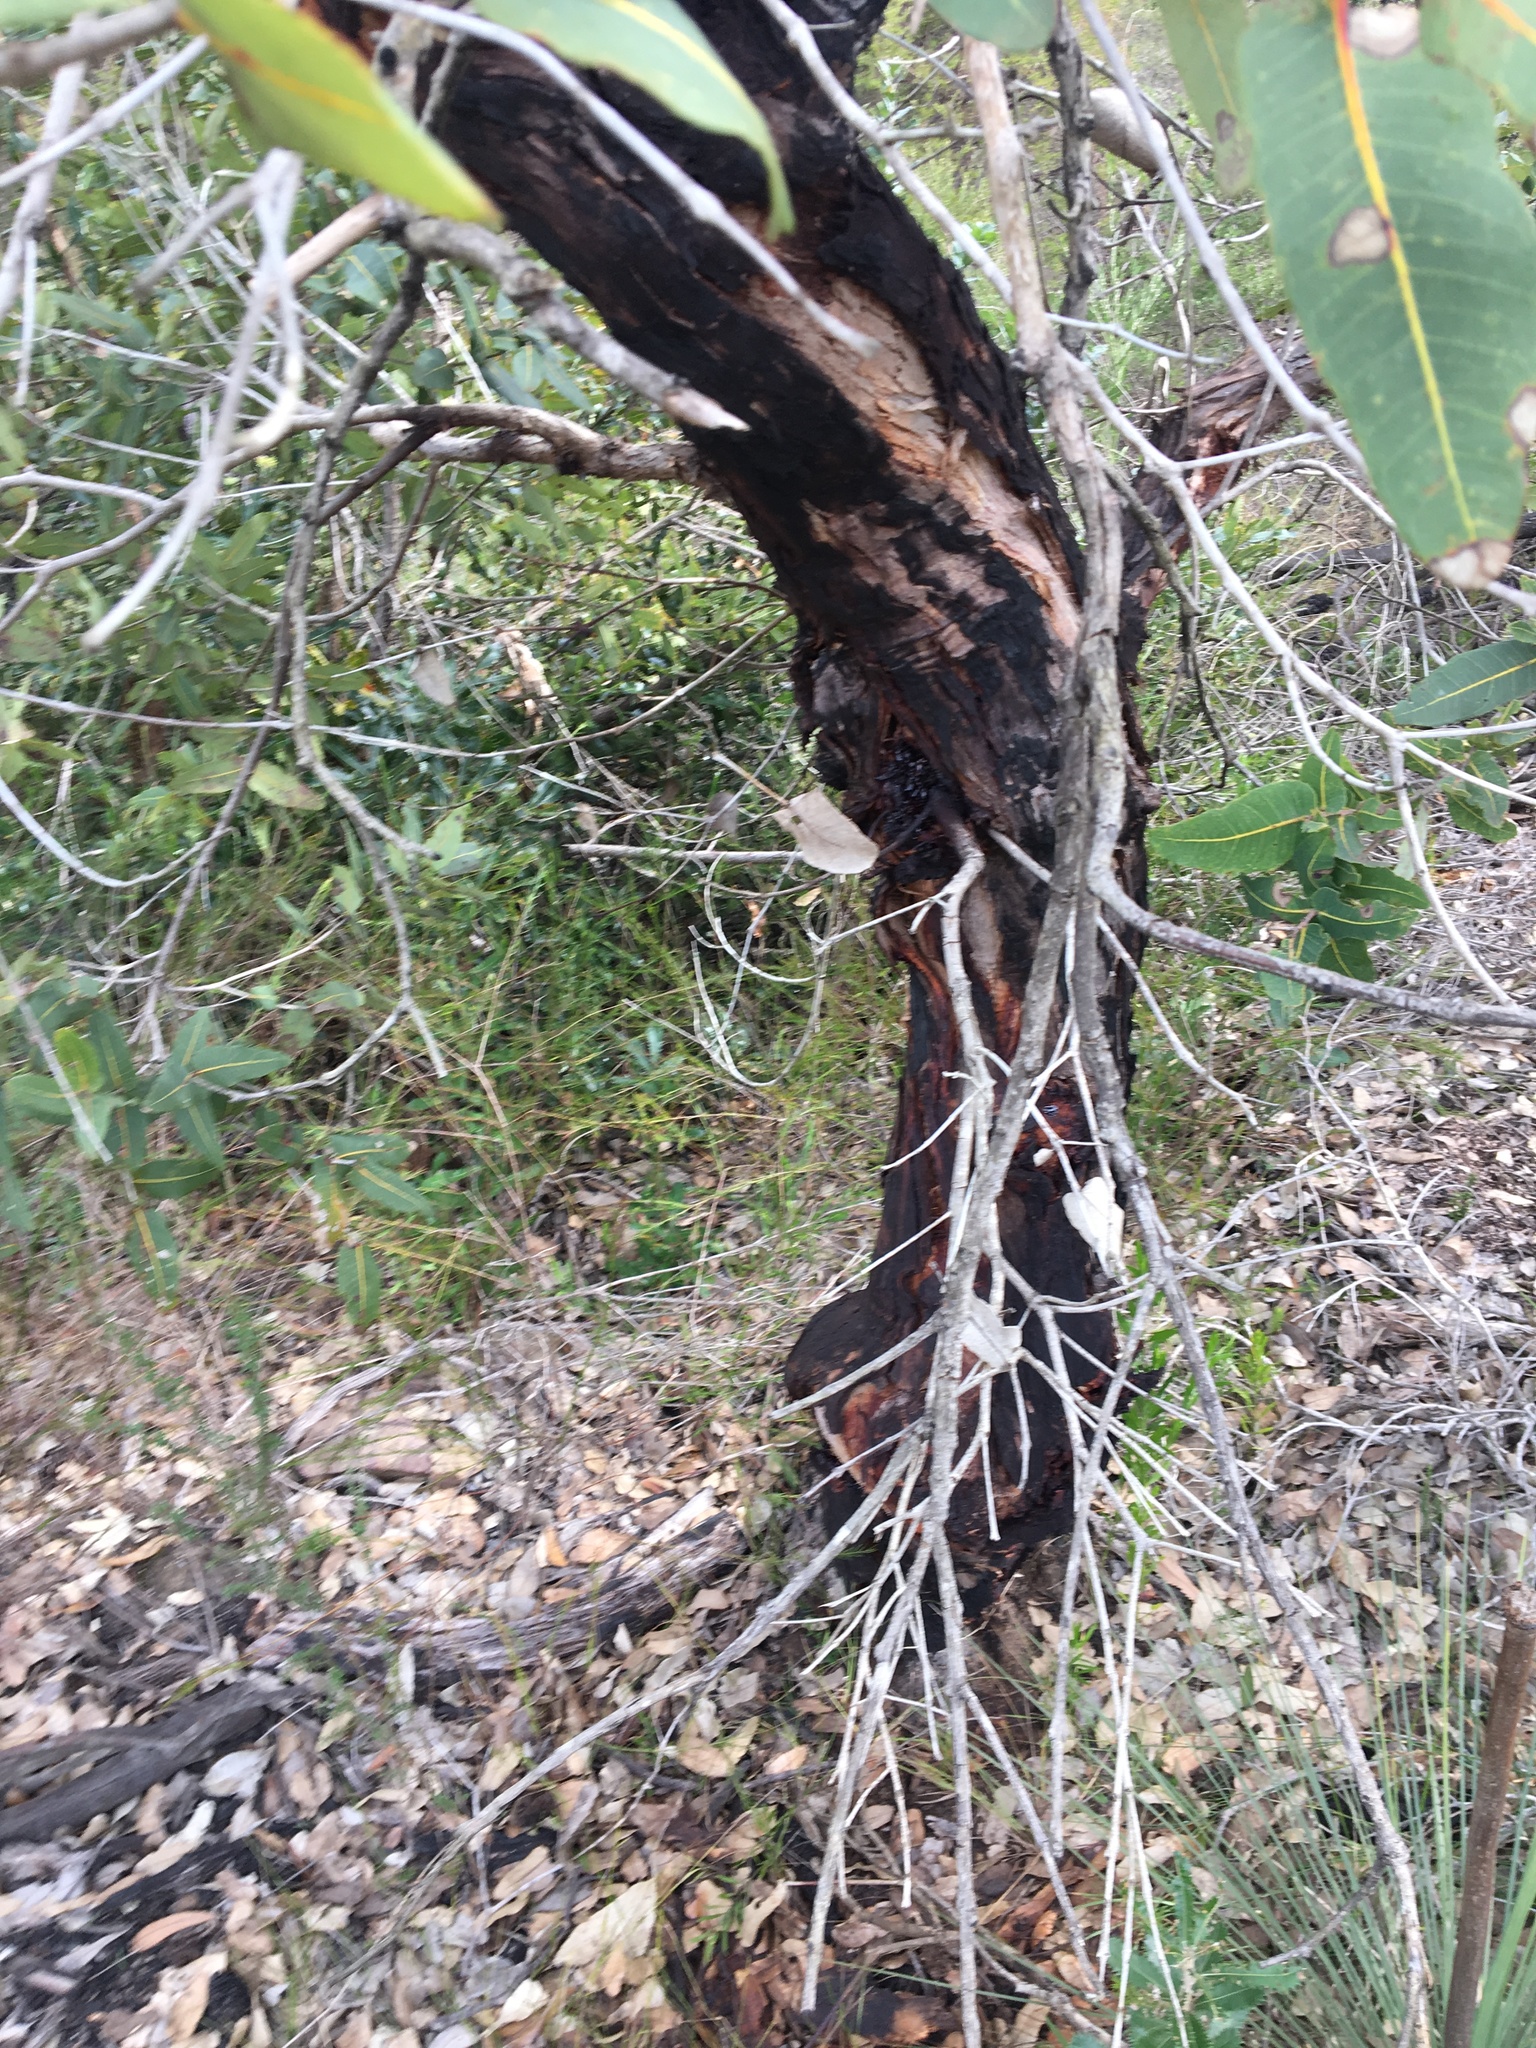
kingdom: Plantae
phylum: Tracheophyta
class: Magnoliopsida
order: Myrtales
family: Myrtaceae
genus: Angophora
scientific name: Angophora hispida
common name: Dwarf-apple
